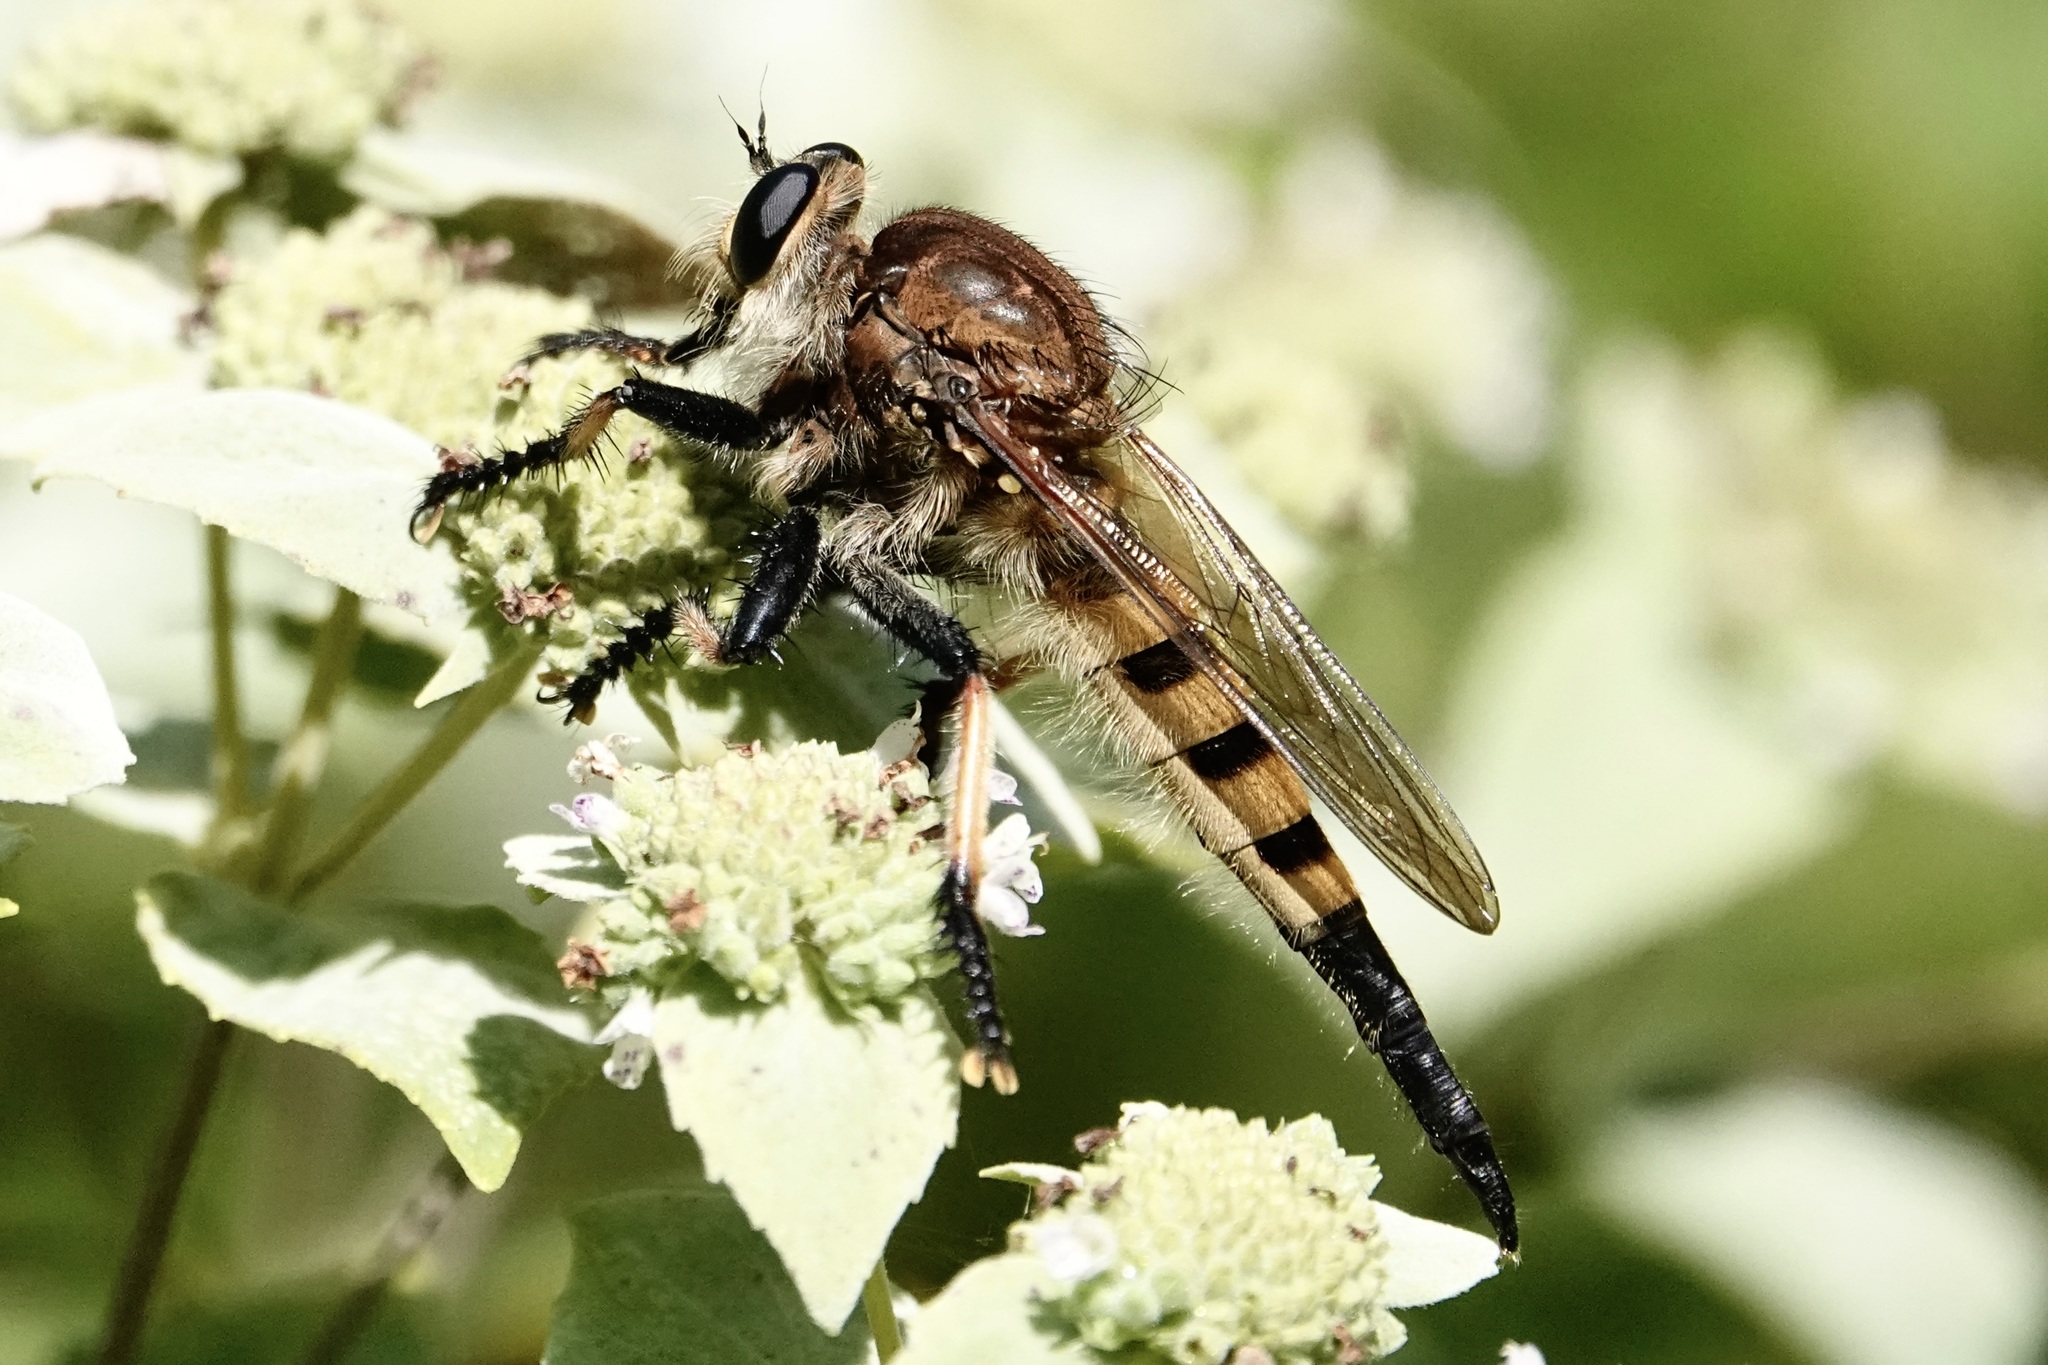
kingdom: Animalia
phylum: Arthropoda
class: Insecta
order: Diptera
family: Asilidae
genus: Promachus
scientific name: Promachus rufipes
